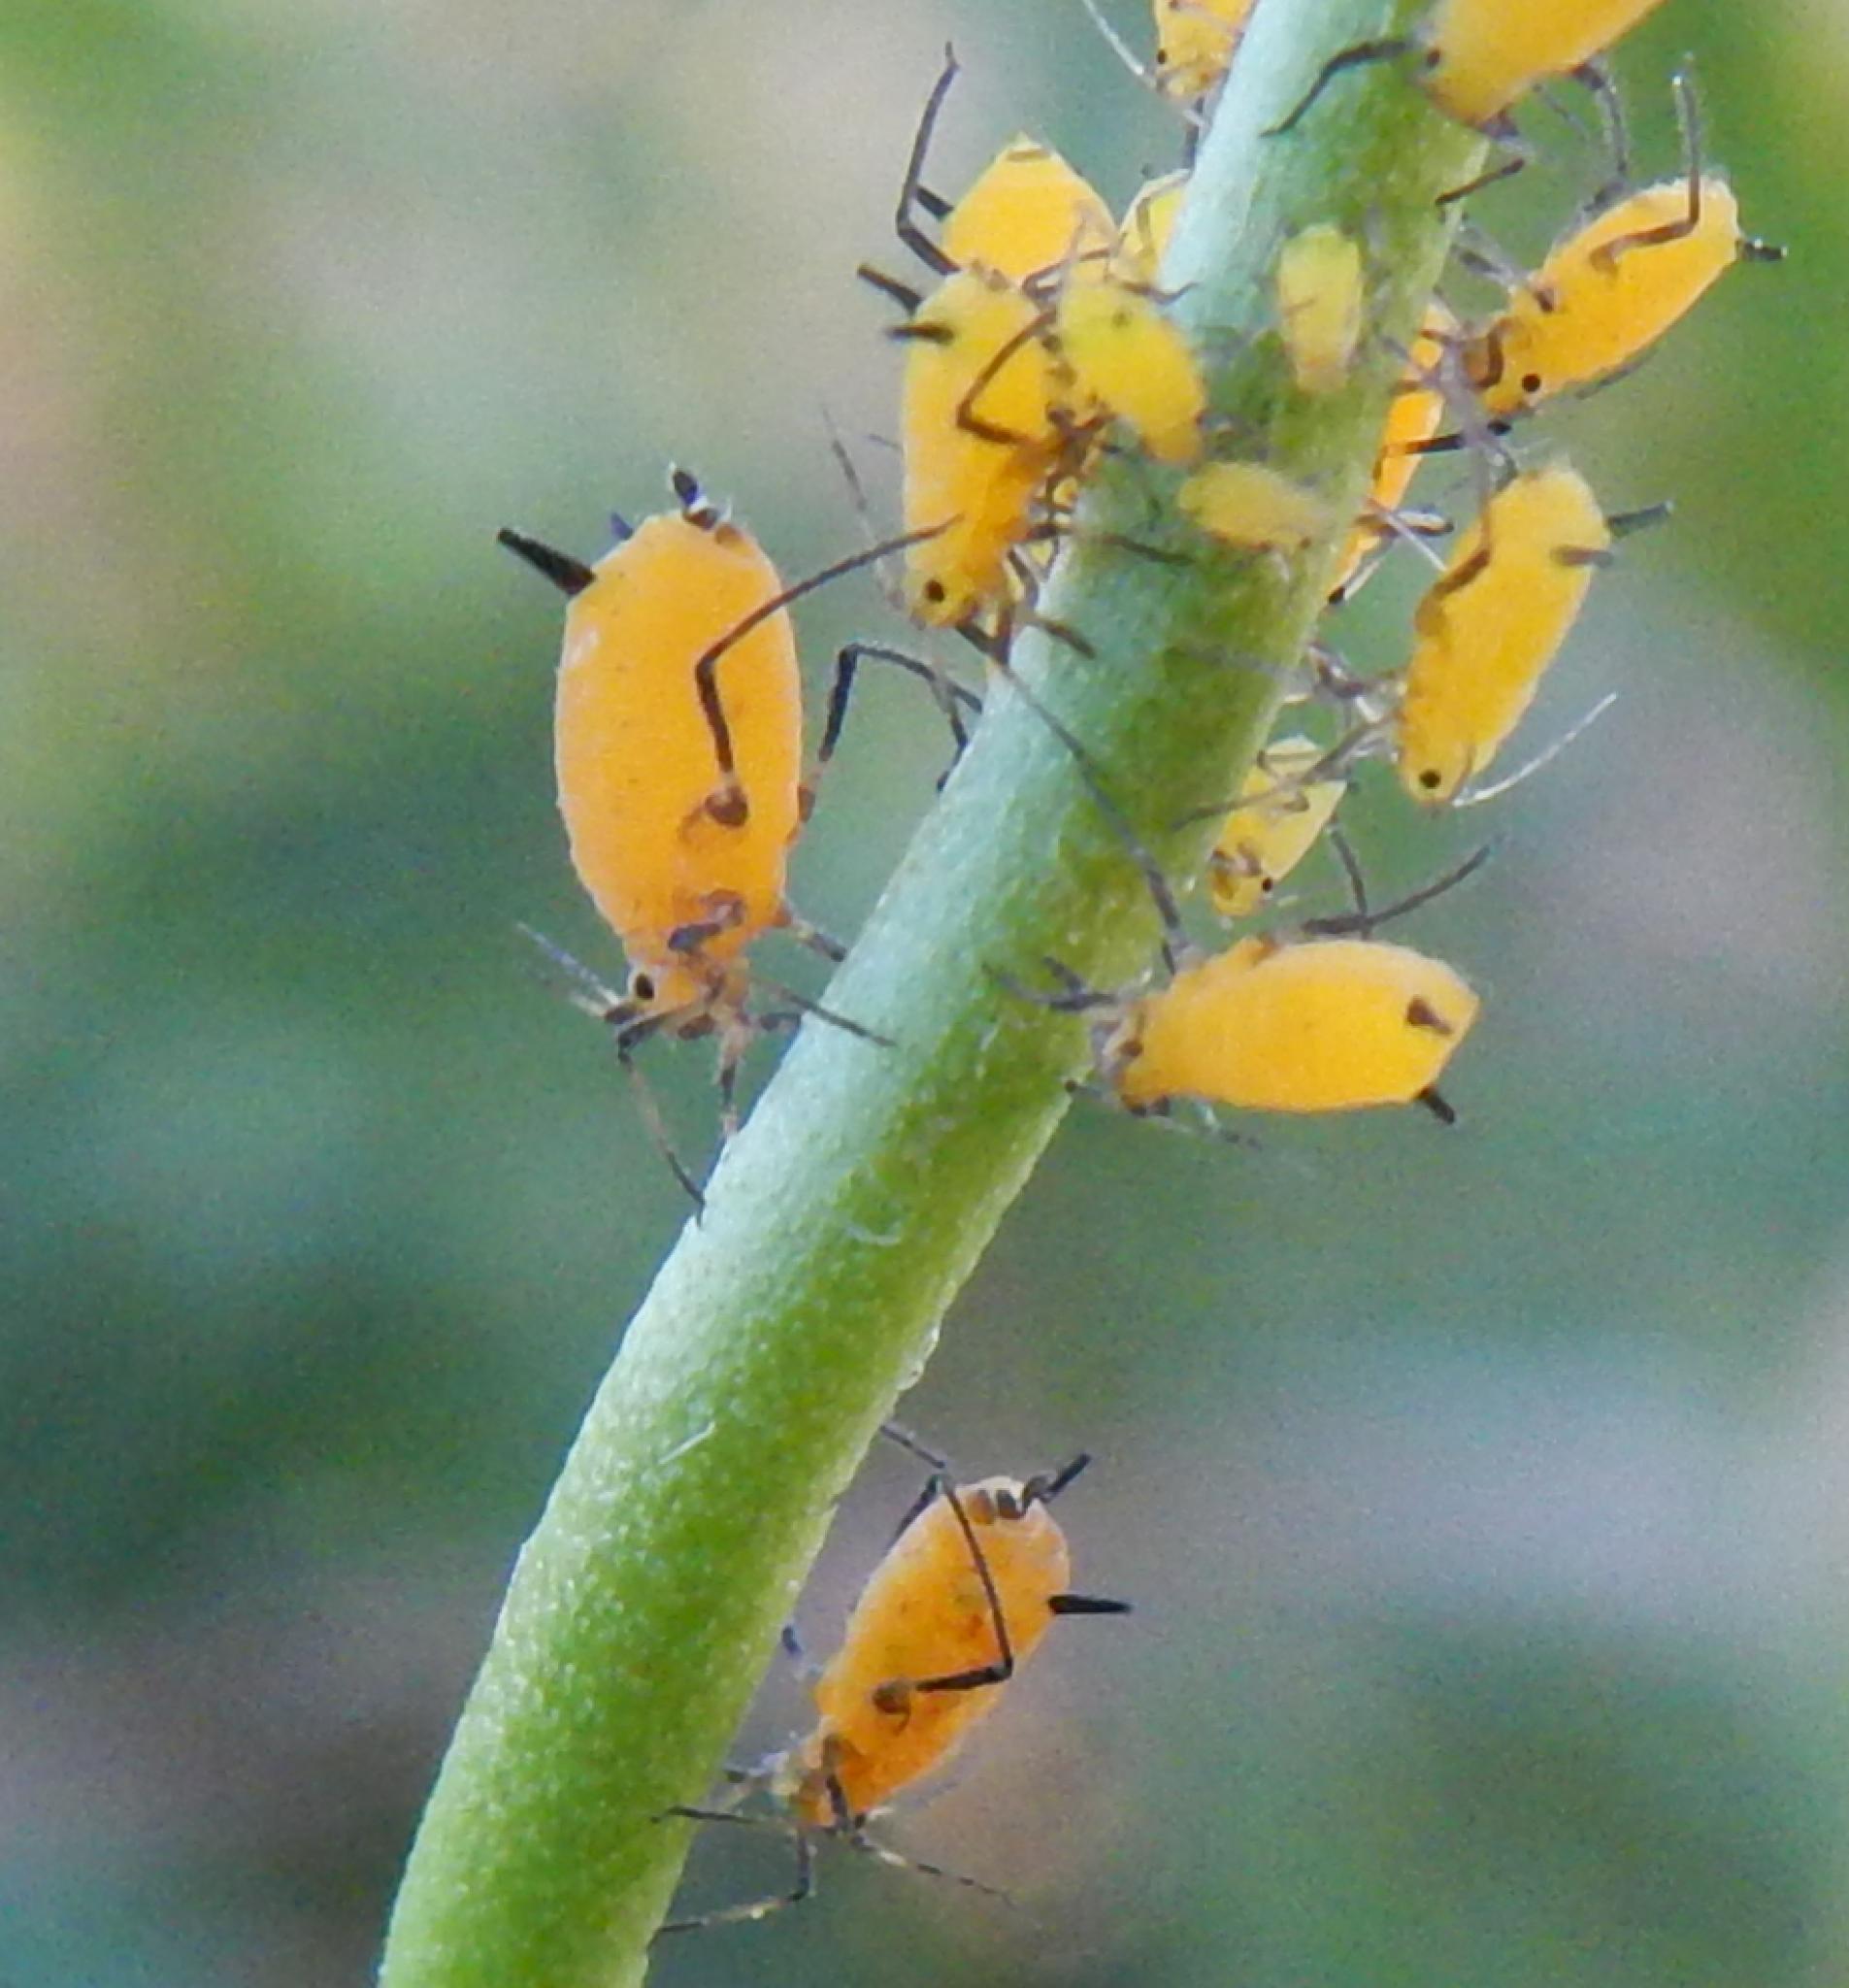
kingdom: Animalia
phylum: Arthropoda
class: Insecta
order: Hemiptera
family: Aphididae
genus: Aphis
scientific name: Aphis nerii
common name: Oleander aphid
